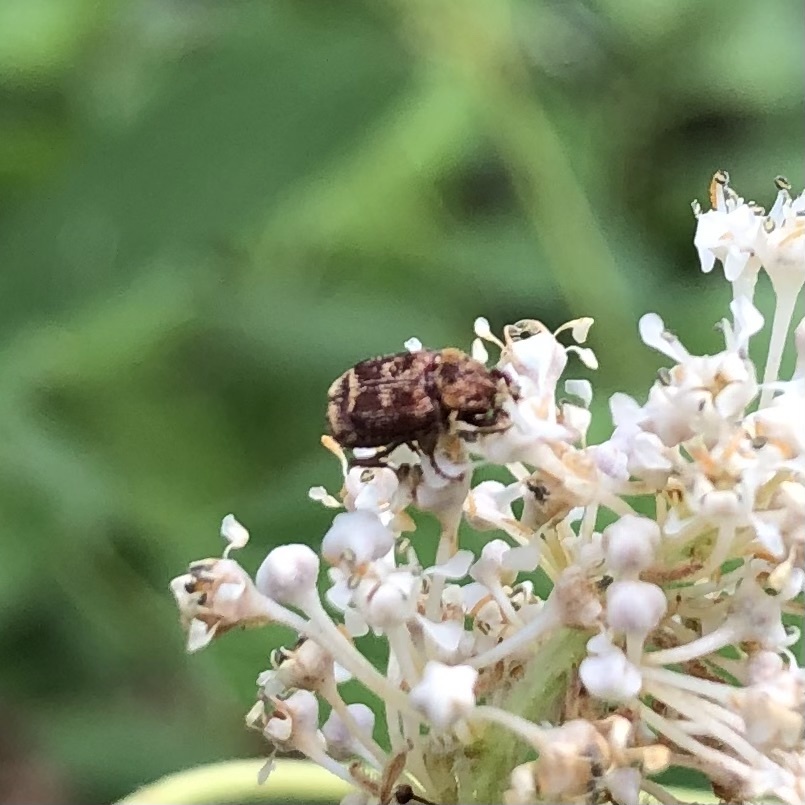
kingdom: Animalia
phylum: Arthropoda
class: Insecta
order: Coleoptera
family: Scarabaeidae
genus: Valgus
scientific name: Valgus canaliculatus
